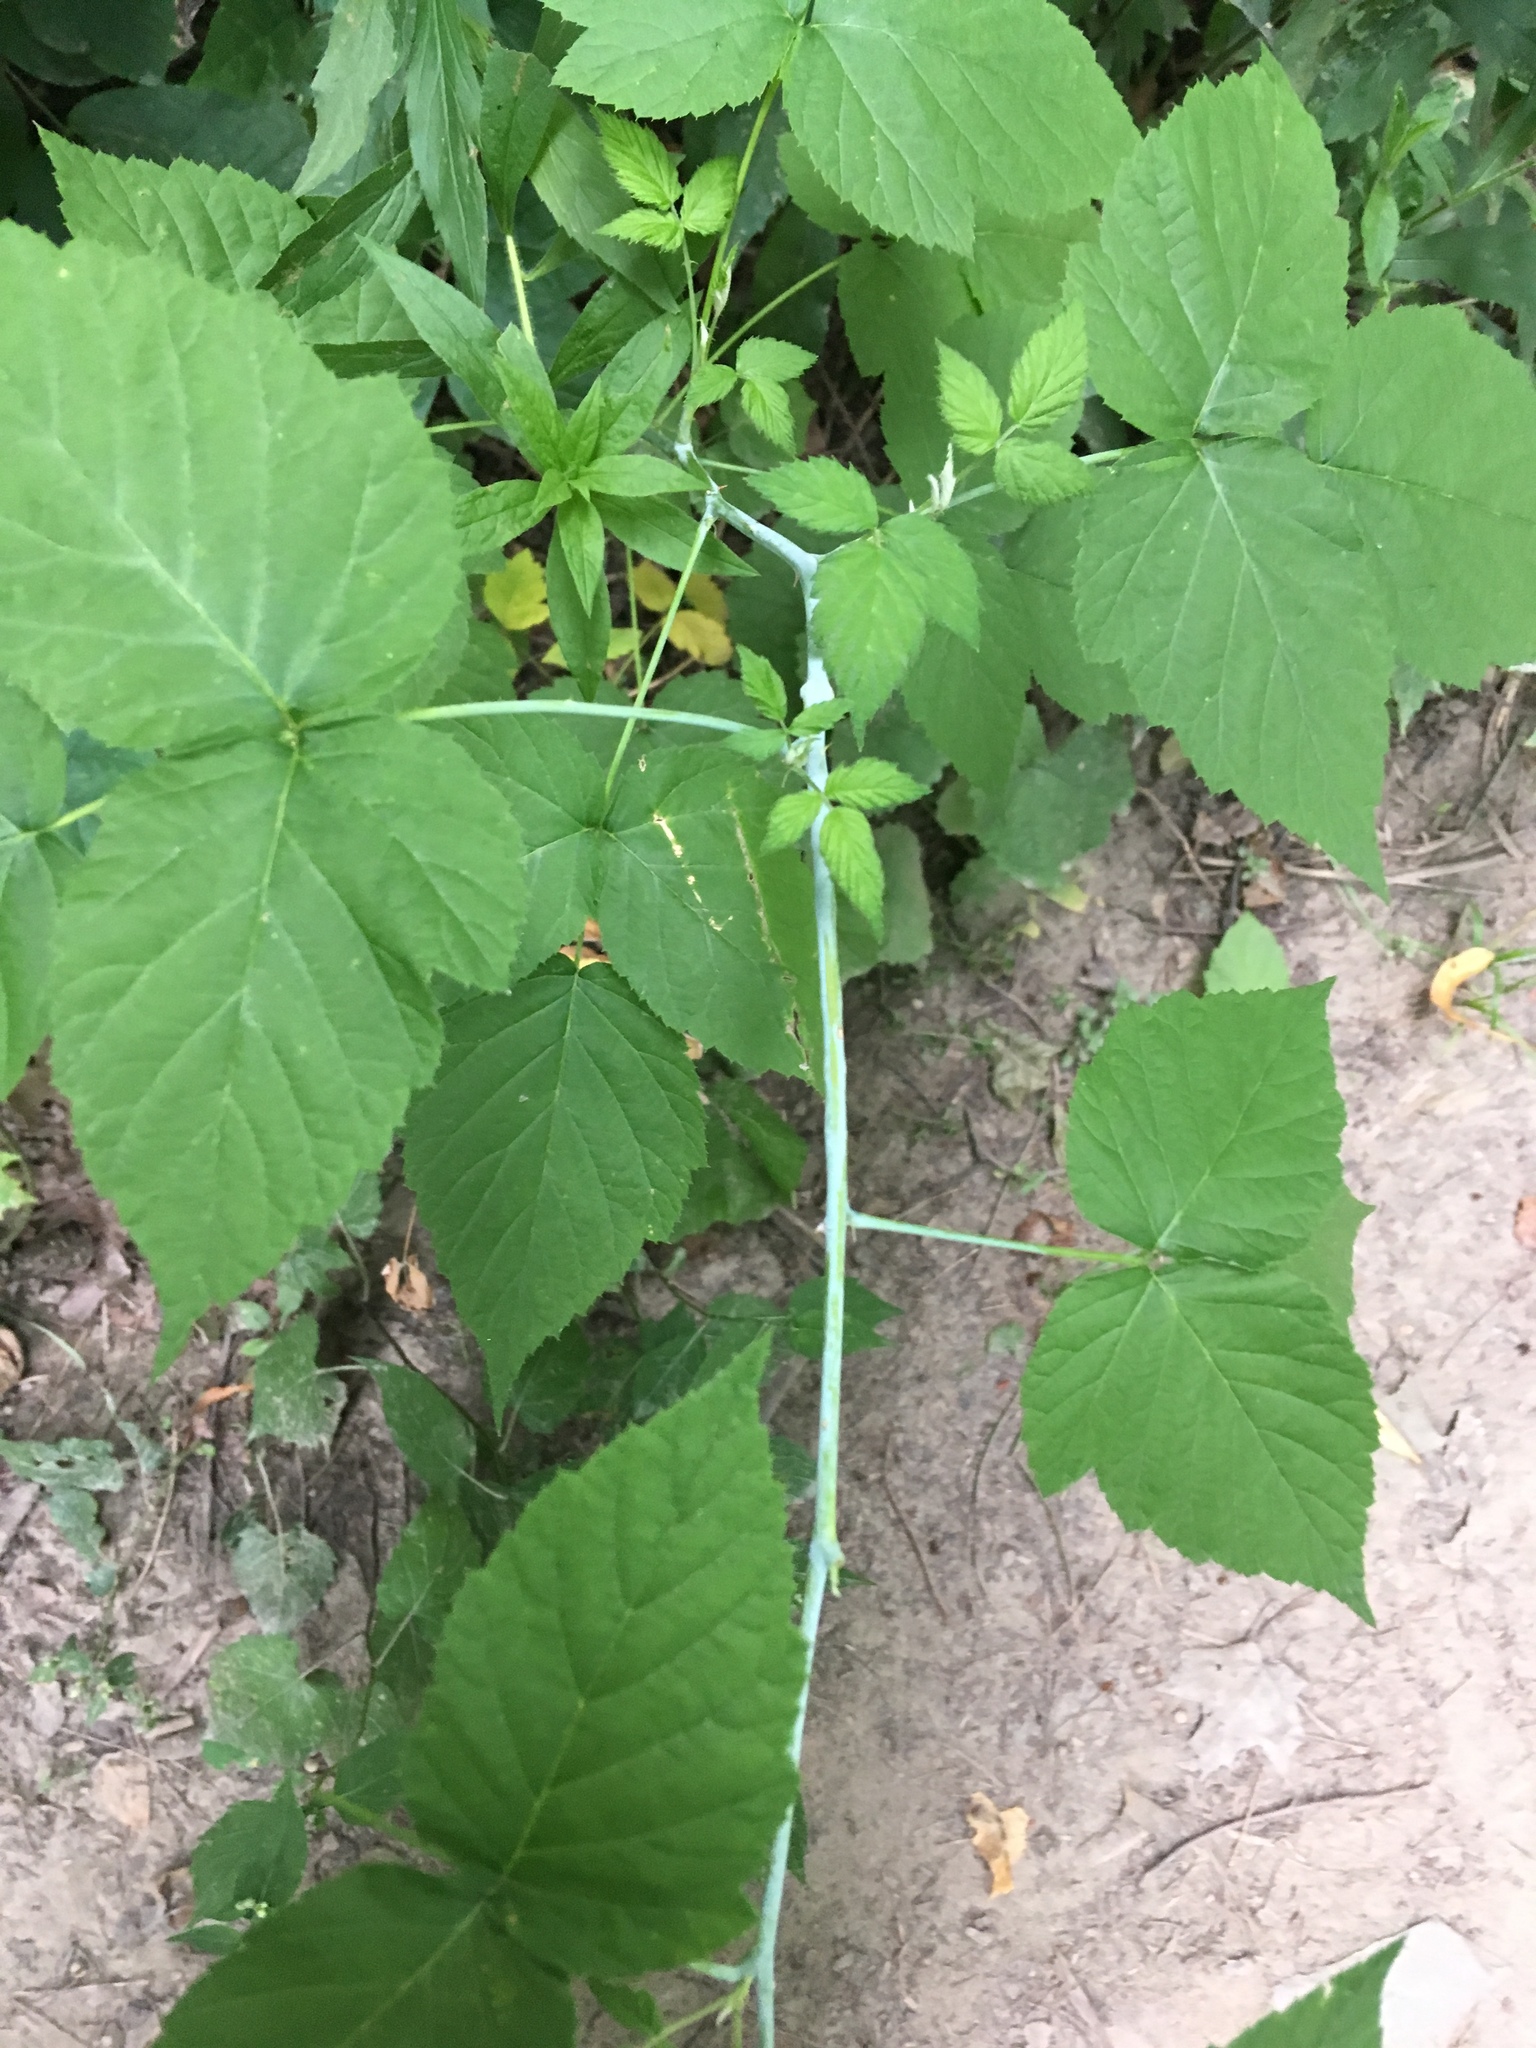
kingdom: Plantae
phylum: Tracheophyta
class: Magnoliopsida
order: Rosales
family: Rosaceae
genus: Rubus
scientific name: Rubus occidentalis
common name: Black raspberry
